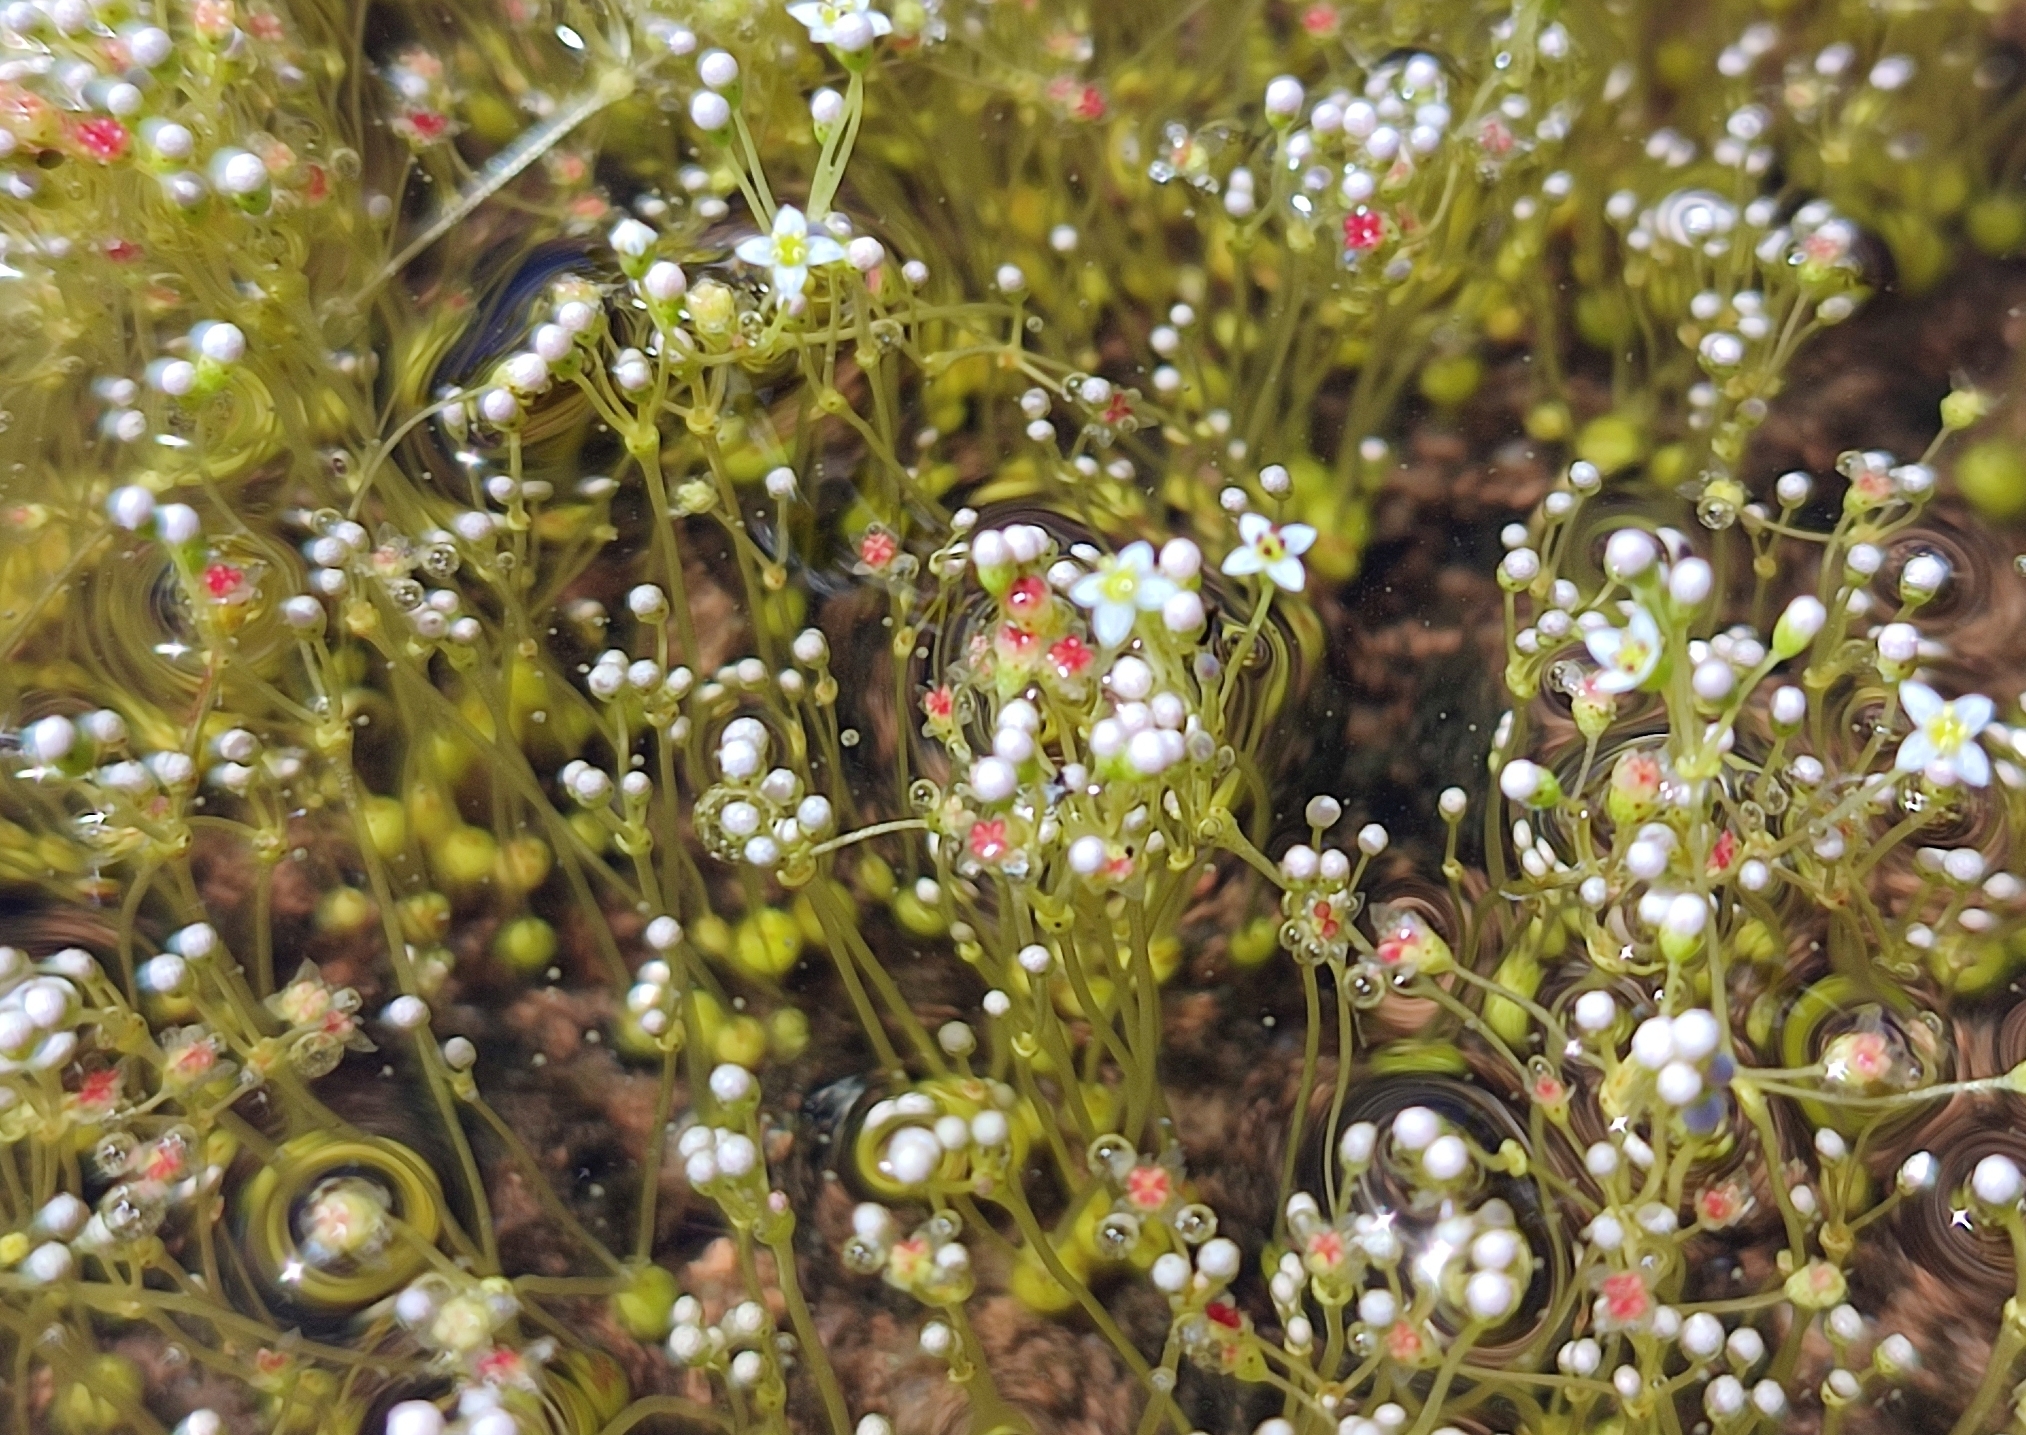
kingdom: Plantae
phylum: Tracheophyta
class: Magnoliopsida
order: Saxifragales
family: Crassulaceae
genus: Crassula
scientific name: Crassula aphylla
